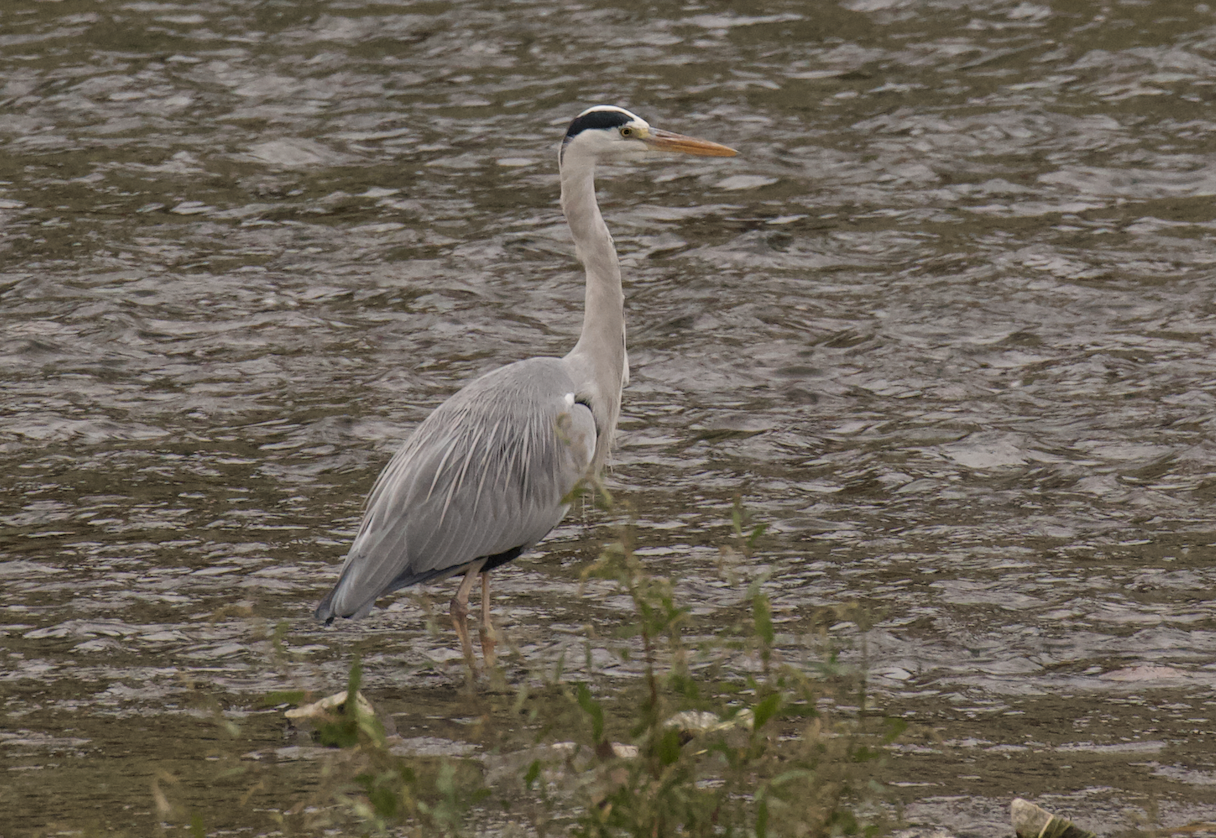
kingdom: Animalia
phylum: Chordata
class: Aves
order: Pelecaniformes
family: Ardeidae
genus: Ardea
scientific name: Ardea cinerea
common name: Grey heron
